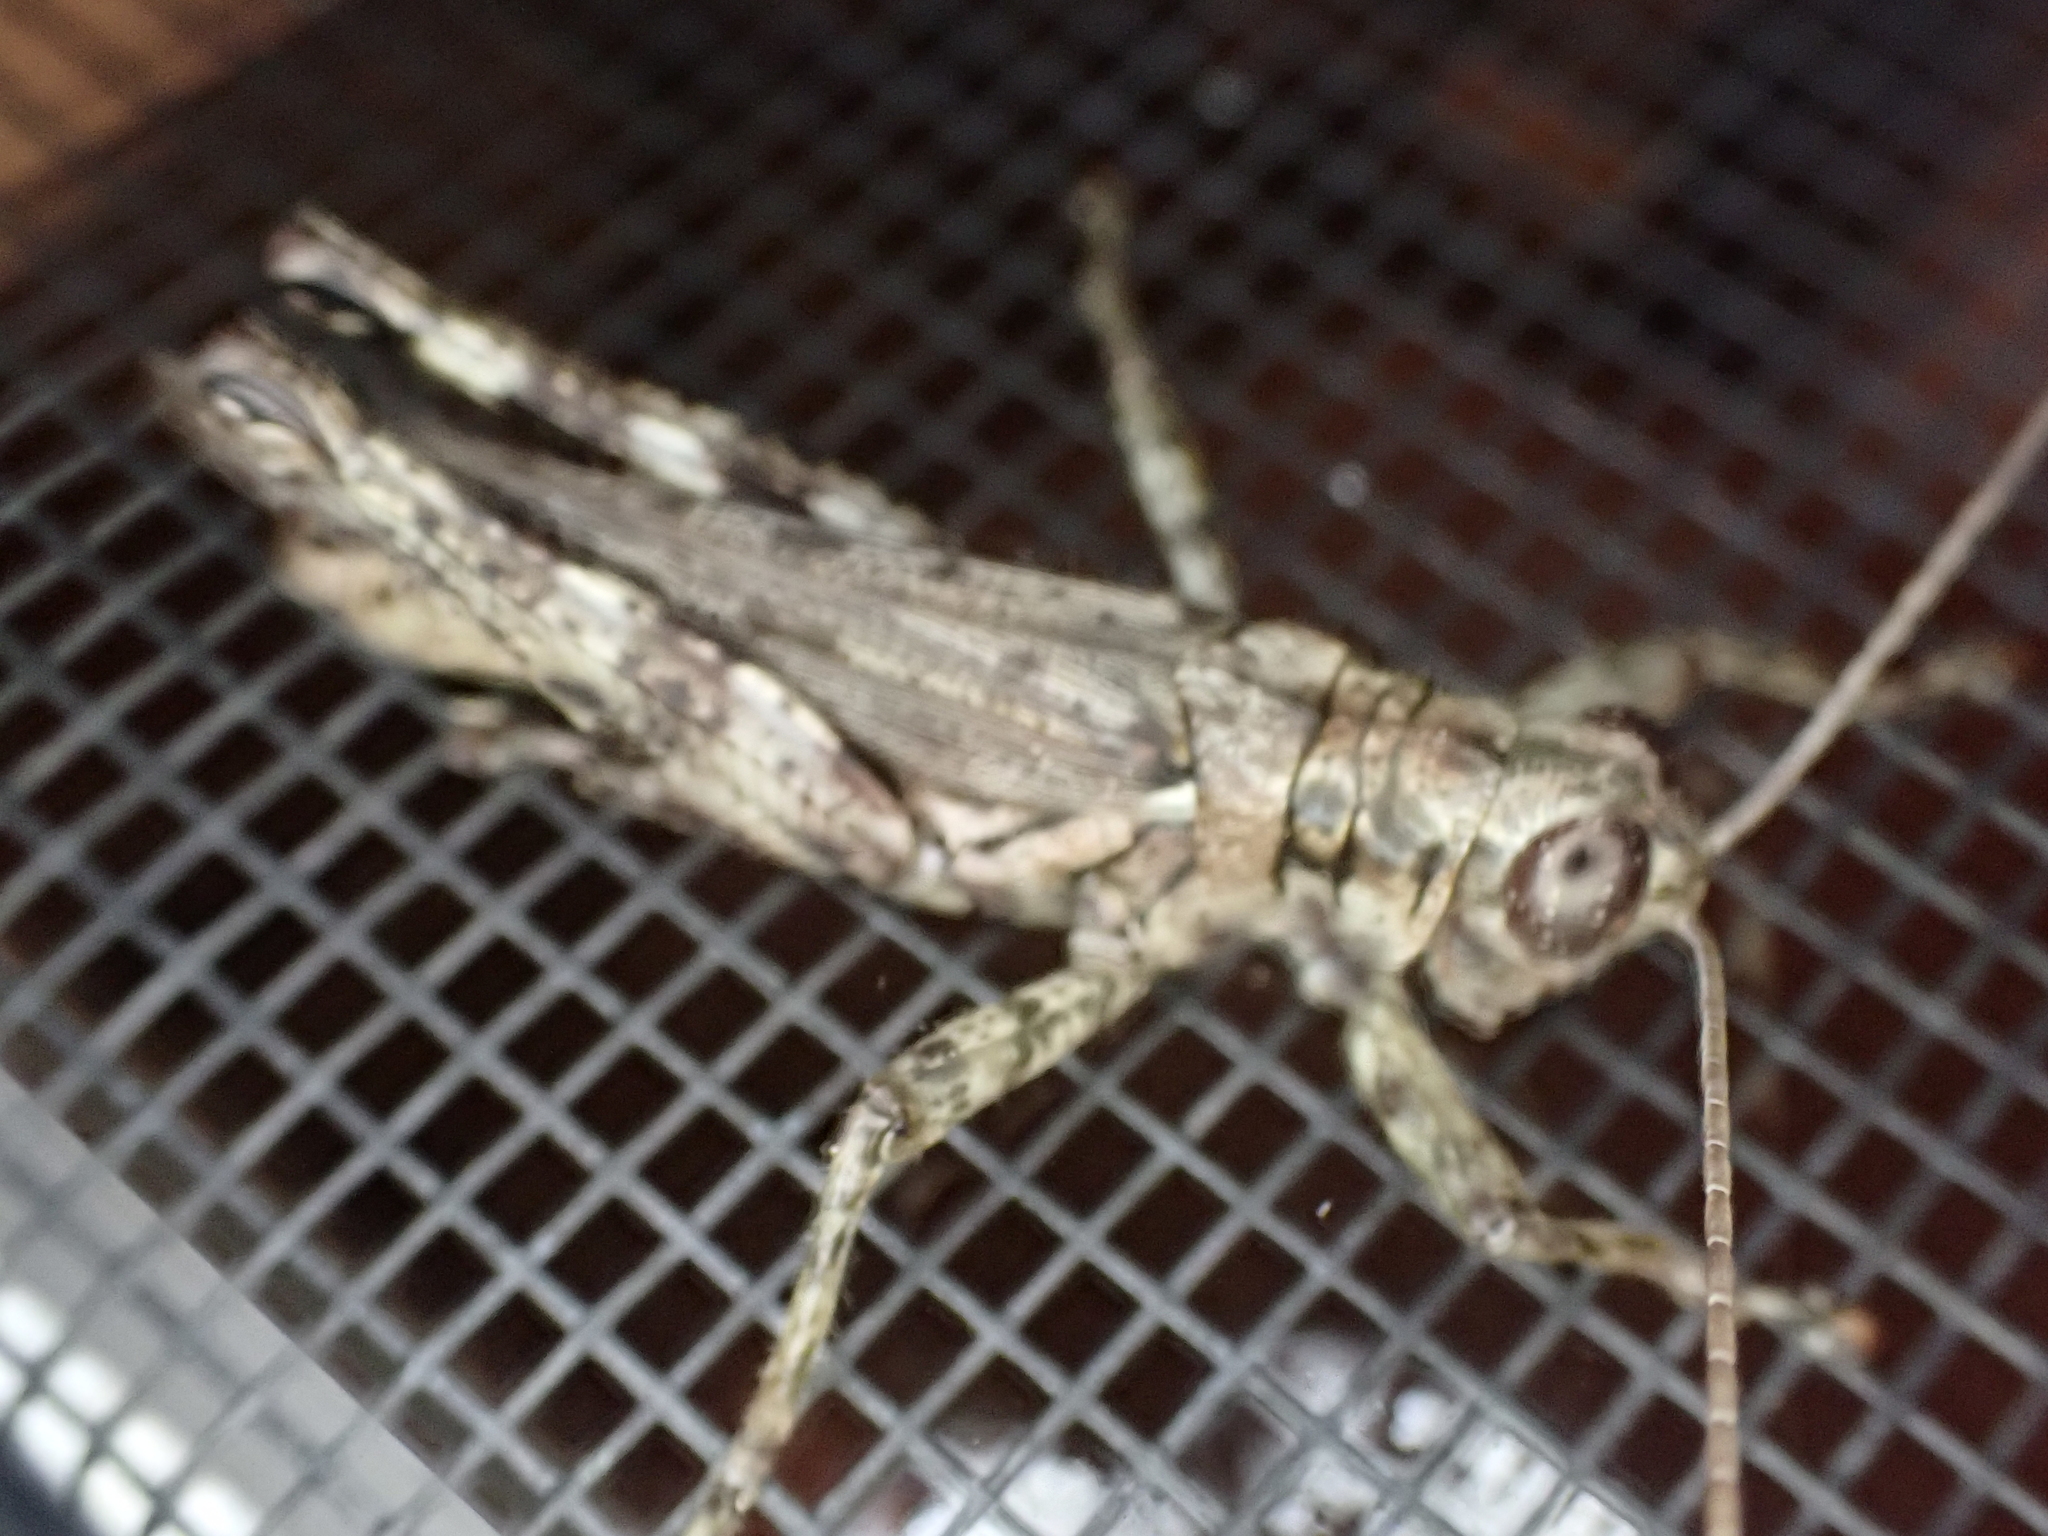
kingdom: Animalia
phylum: Arthropoda
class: Insecta
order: Orthoptera
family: Acrididae
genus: Melanoplus
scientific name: Melanoplus punctulatus
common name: Pine-tree spur-throat grasshopper
